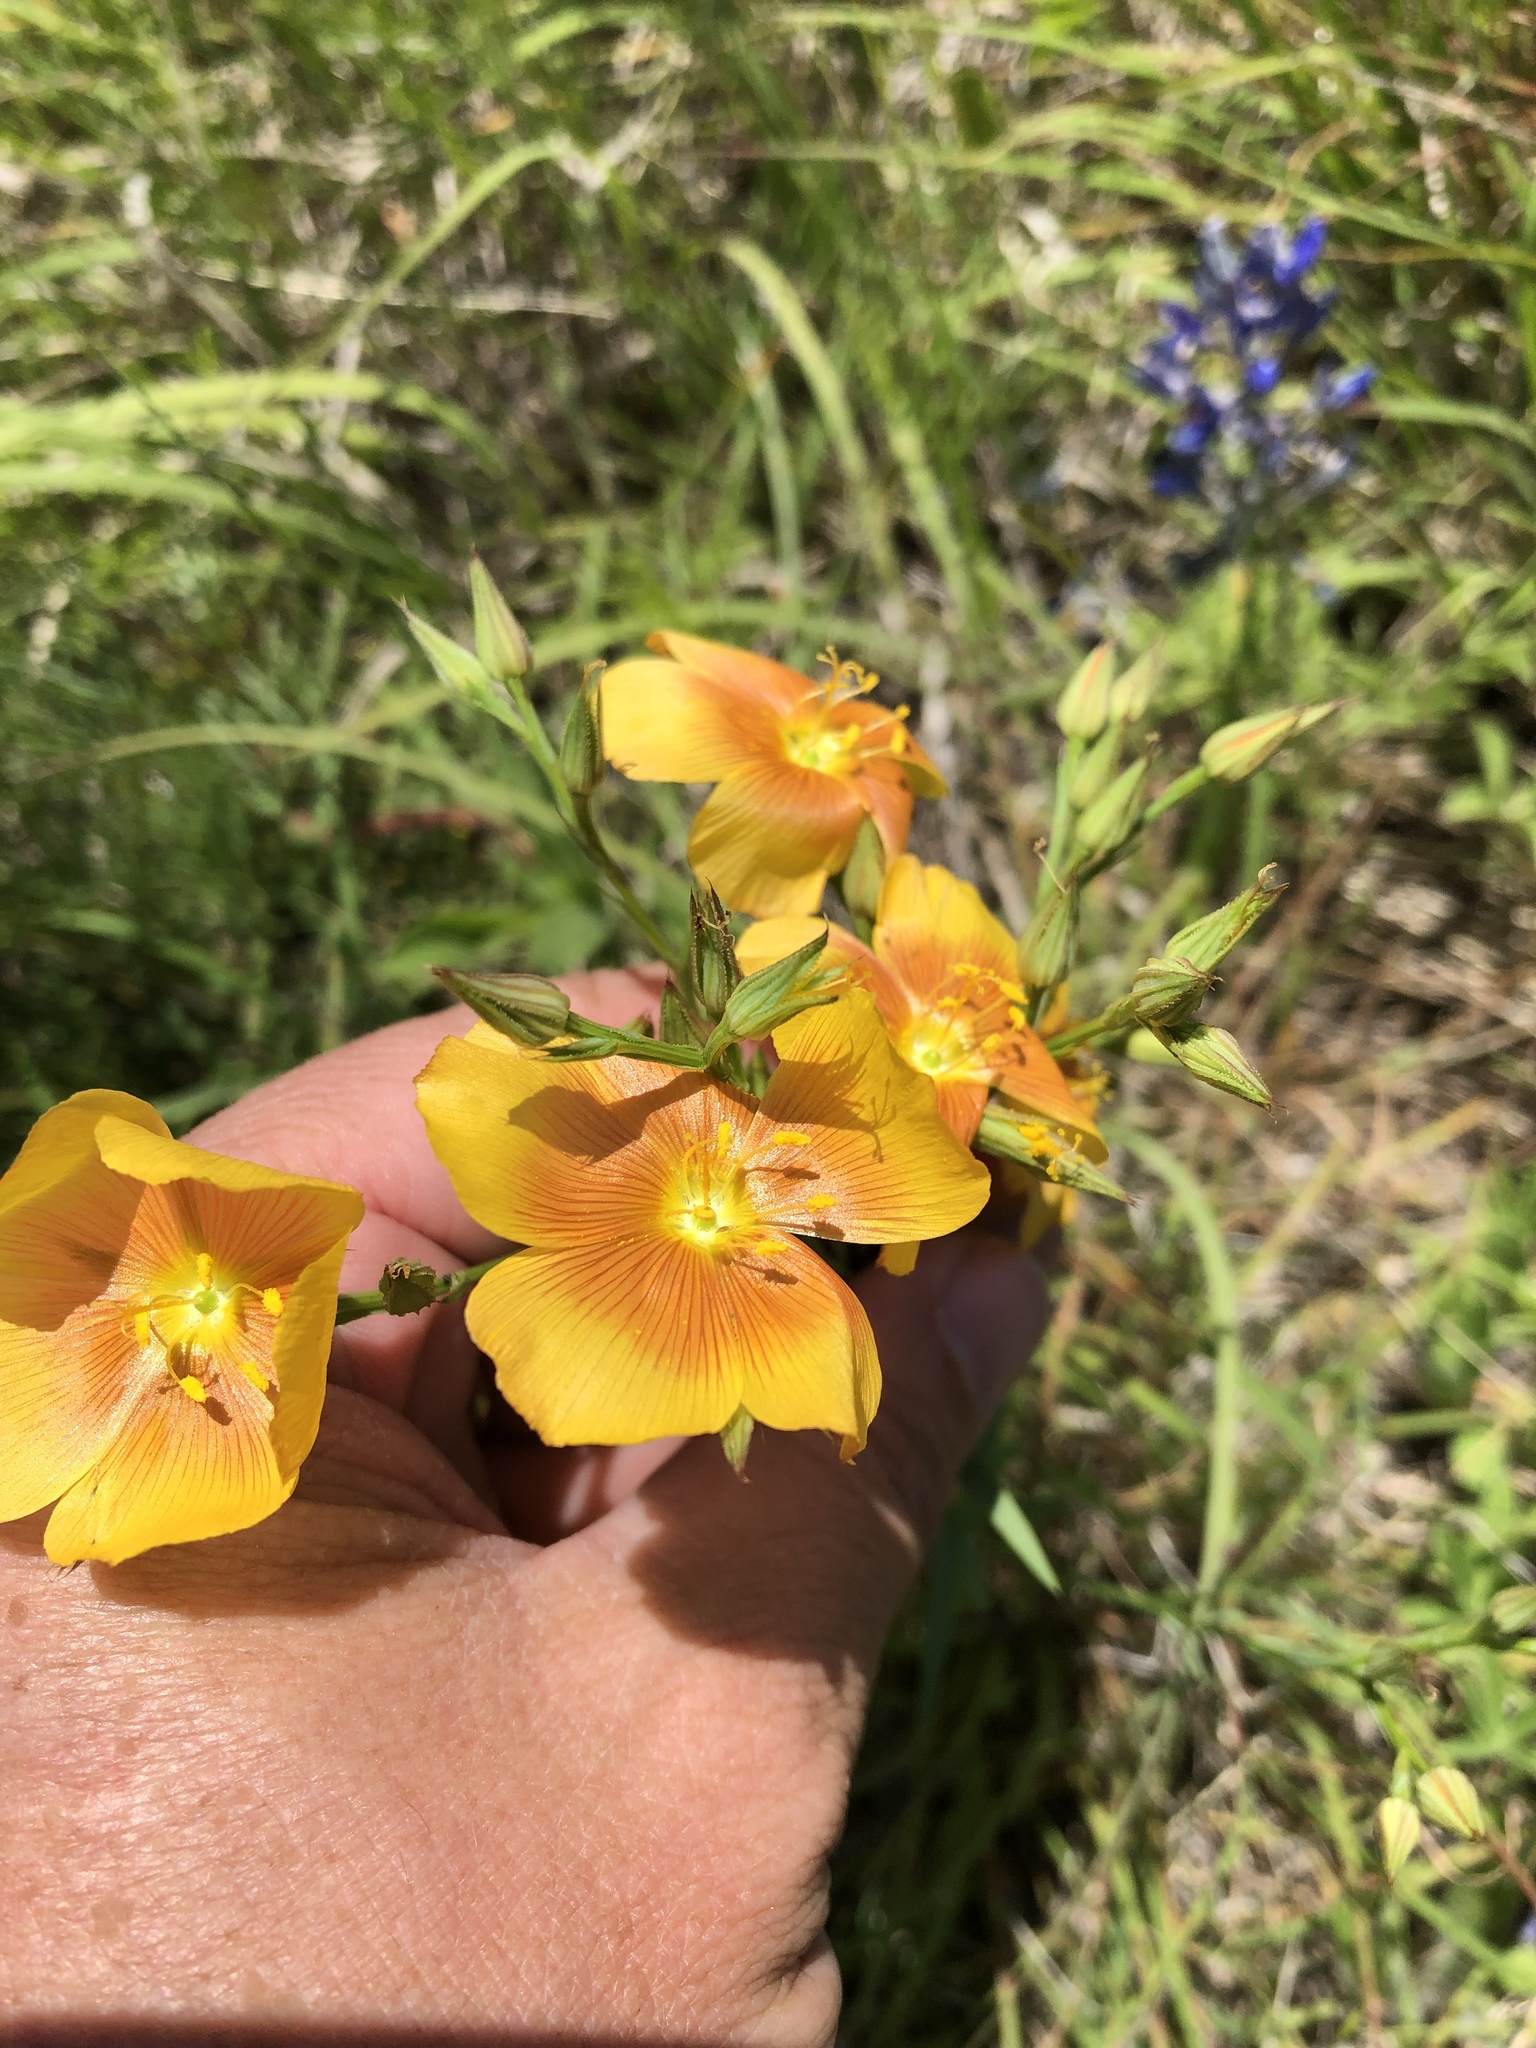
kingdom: Plantae
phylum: Tracheophyta
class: Magnoliopsida
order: Malpighiales
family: Linaceae
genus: Linum
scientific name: Linum rigidum
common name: Stiff-stem flax
